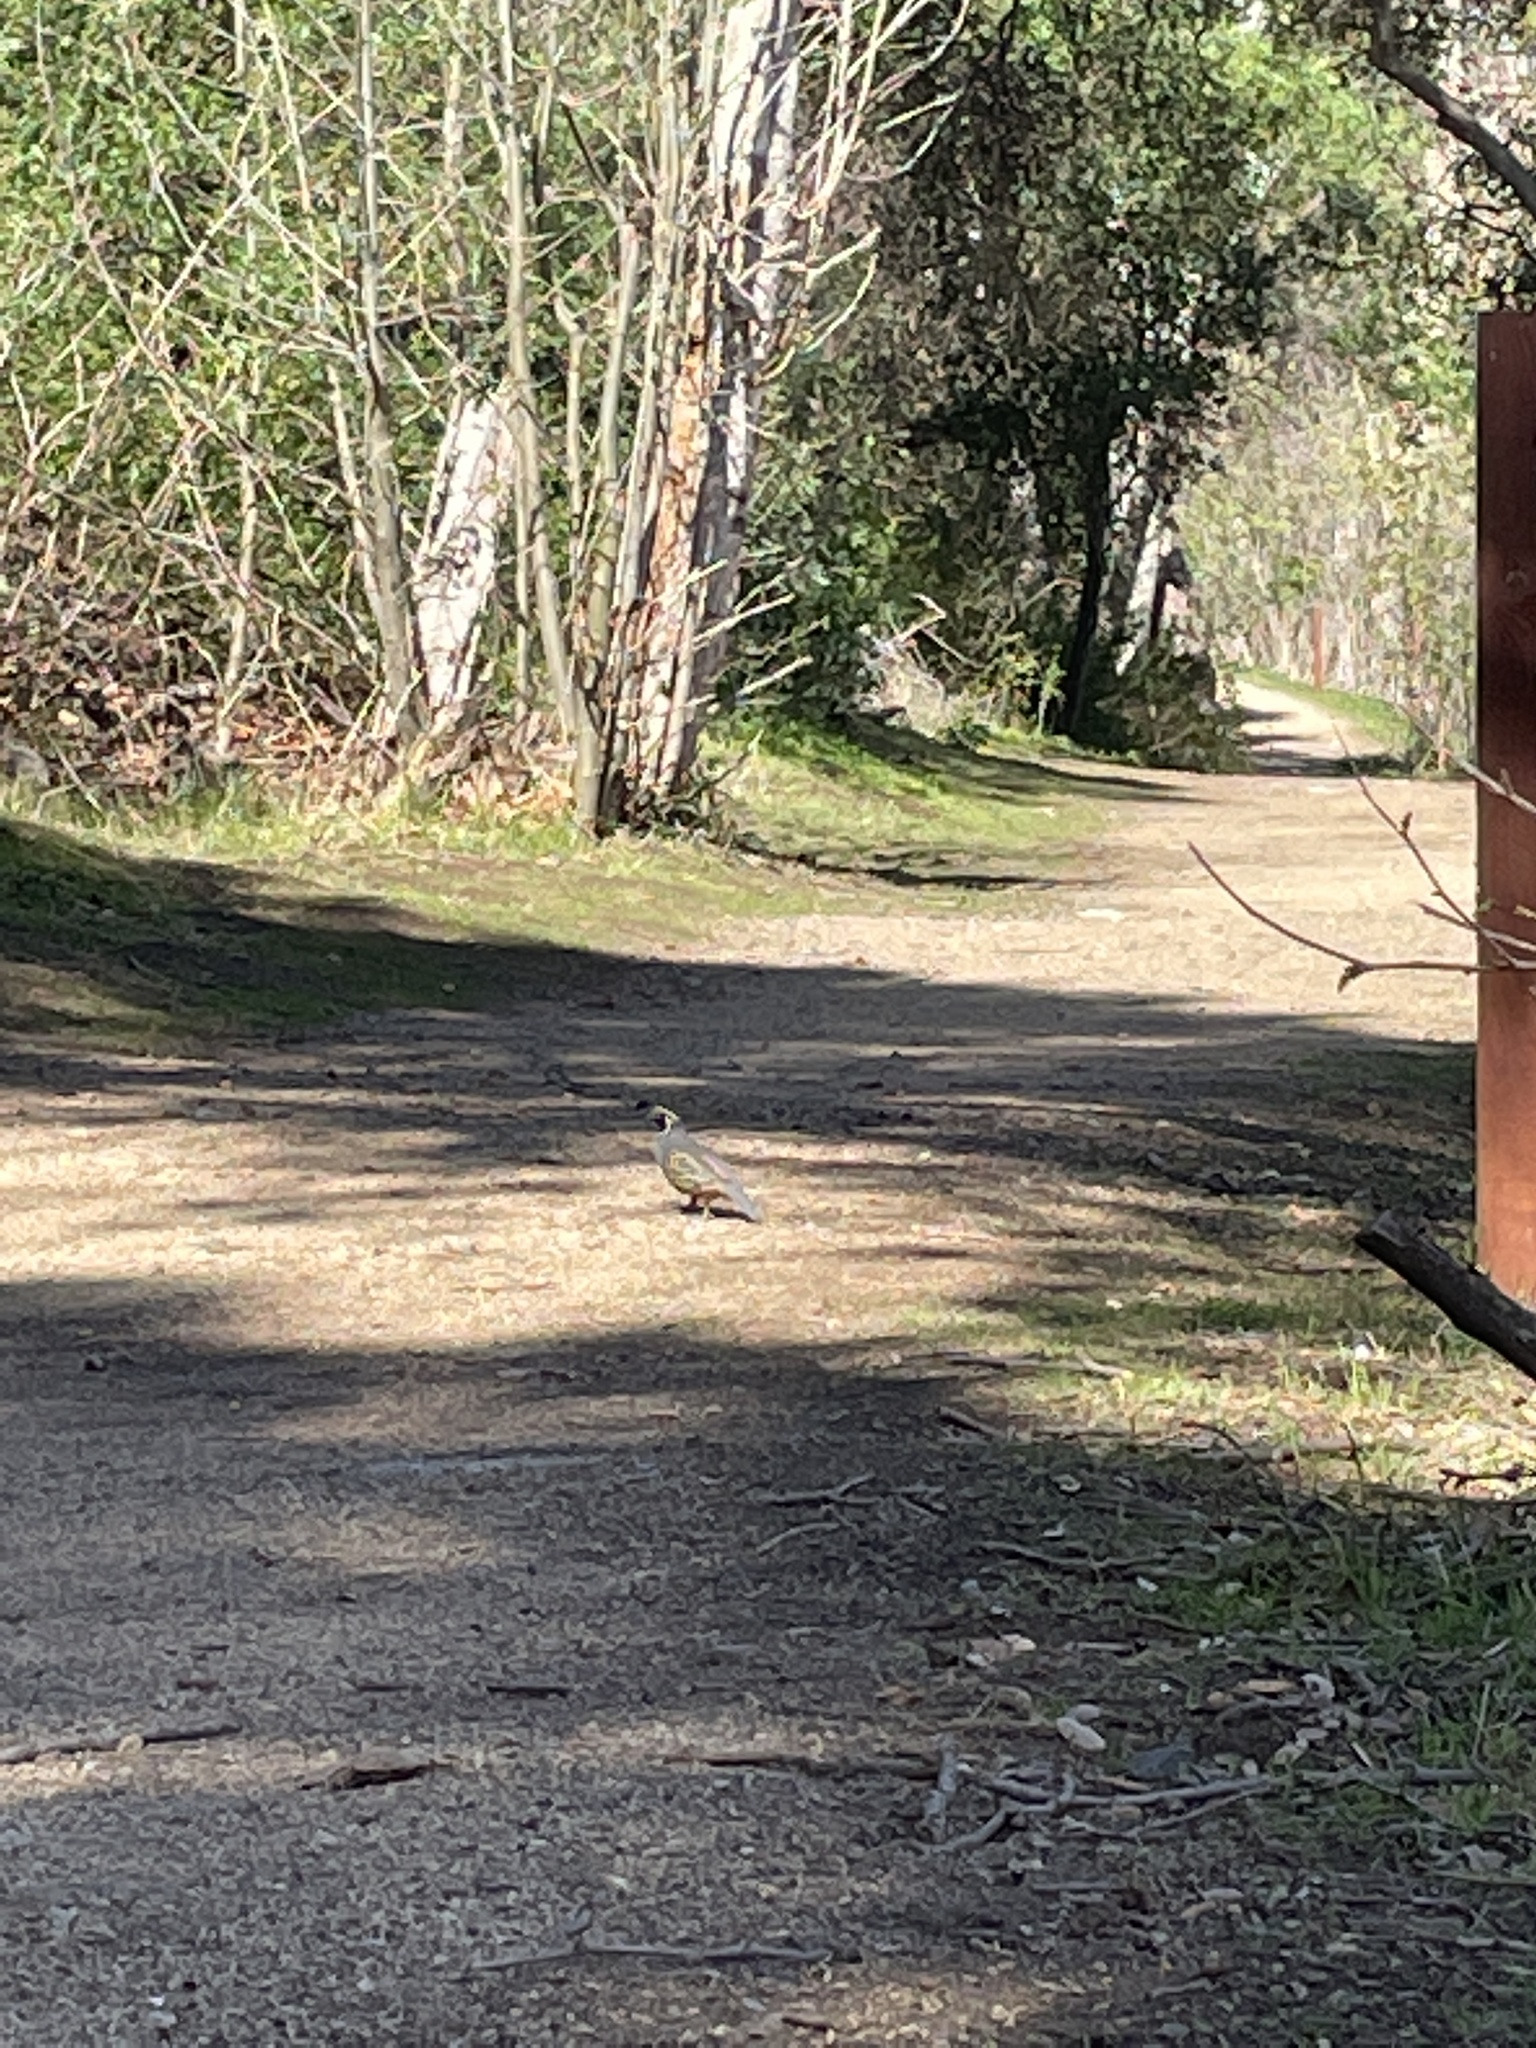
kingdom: Animalia
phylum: Chordata
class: Aves
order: Galliformes
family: Odontophoridae
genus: Callipepla
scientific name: Callipepla californica
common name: California quail
